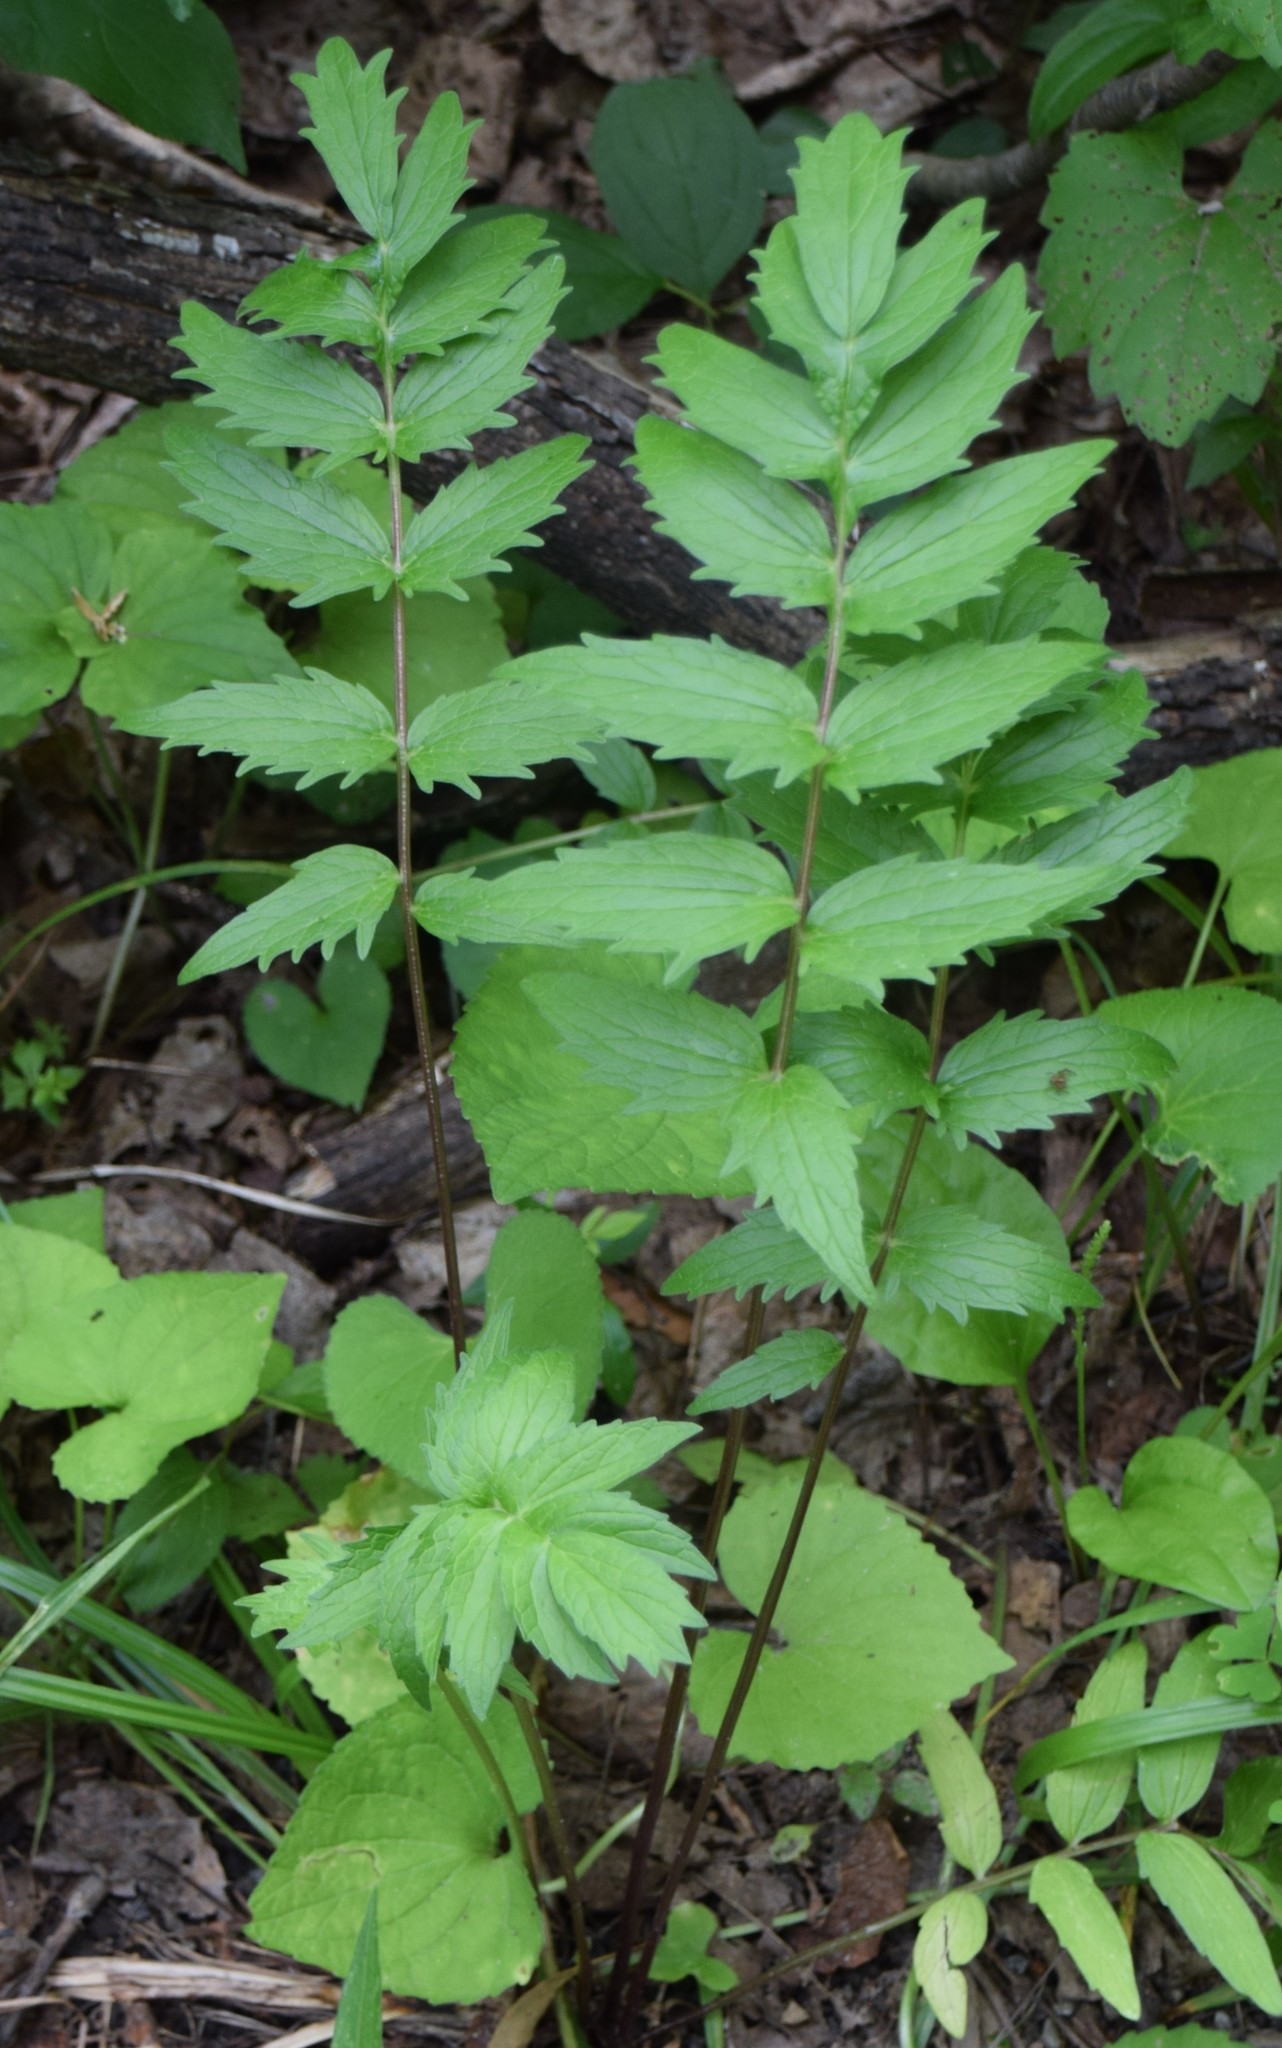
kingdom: Plantae
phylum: Tracheophyta
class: Magnoliopsida
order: Dipsacales
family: Caprifoliaceae
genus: Valeriana
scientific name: Valeriana officinalis
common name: Common valerian
